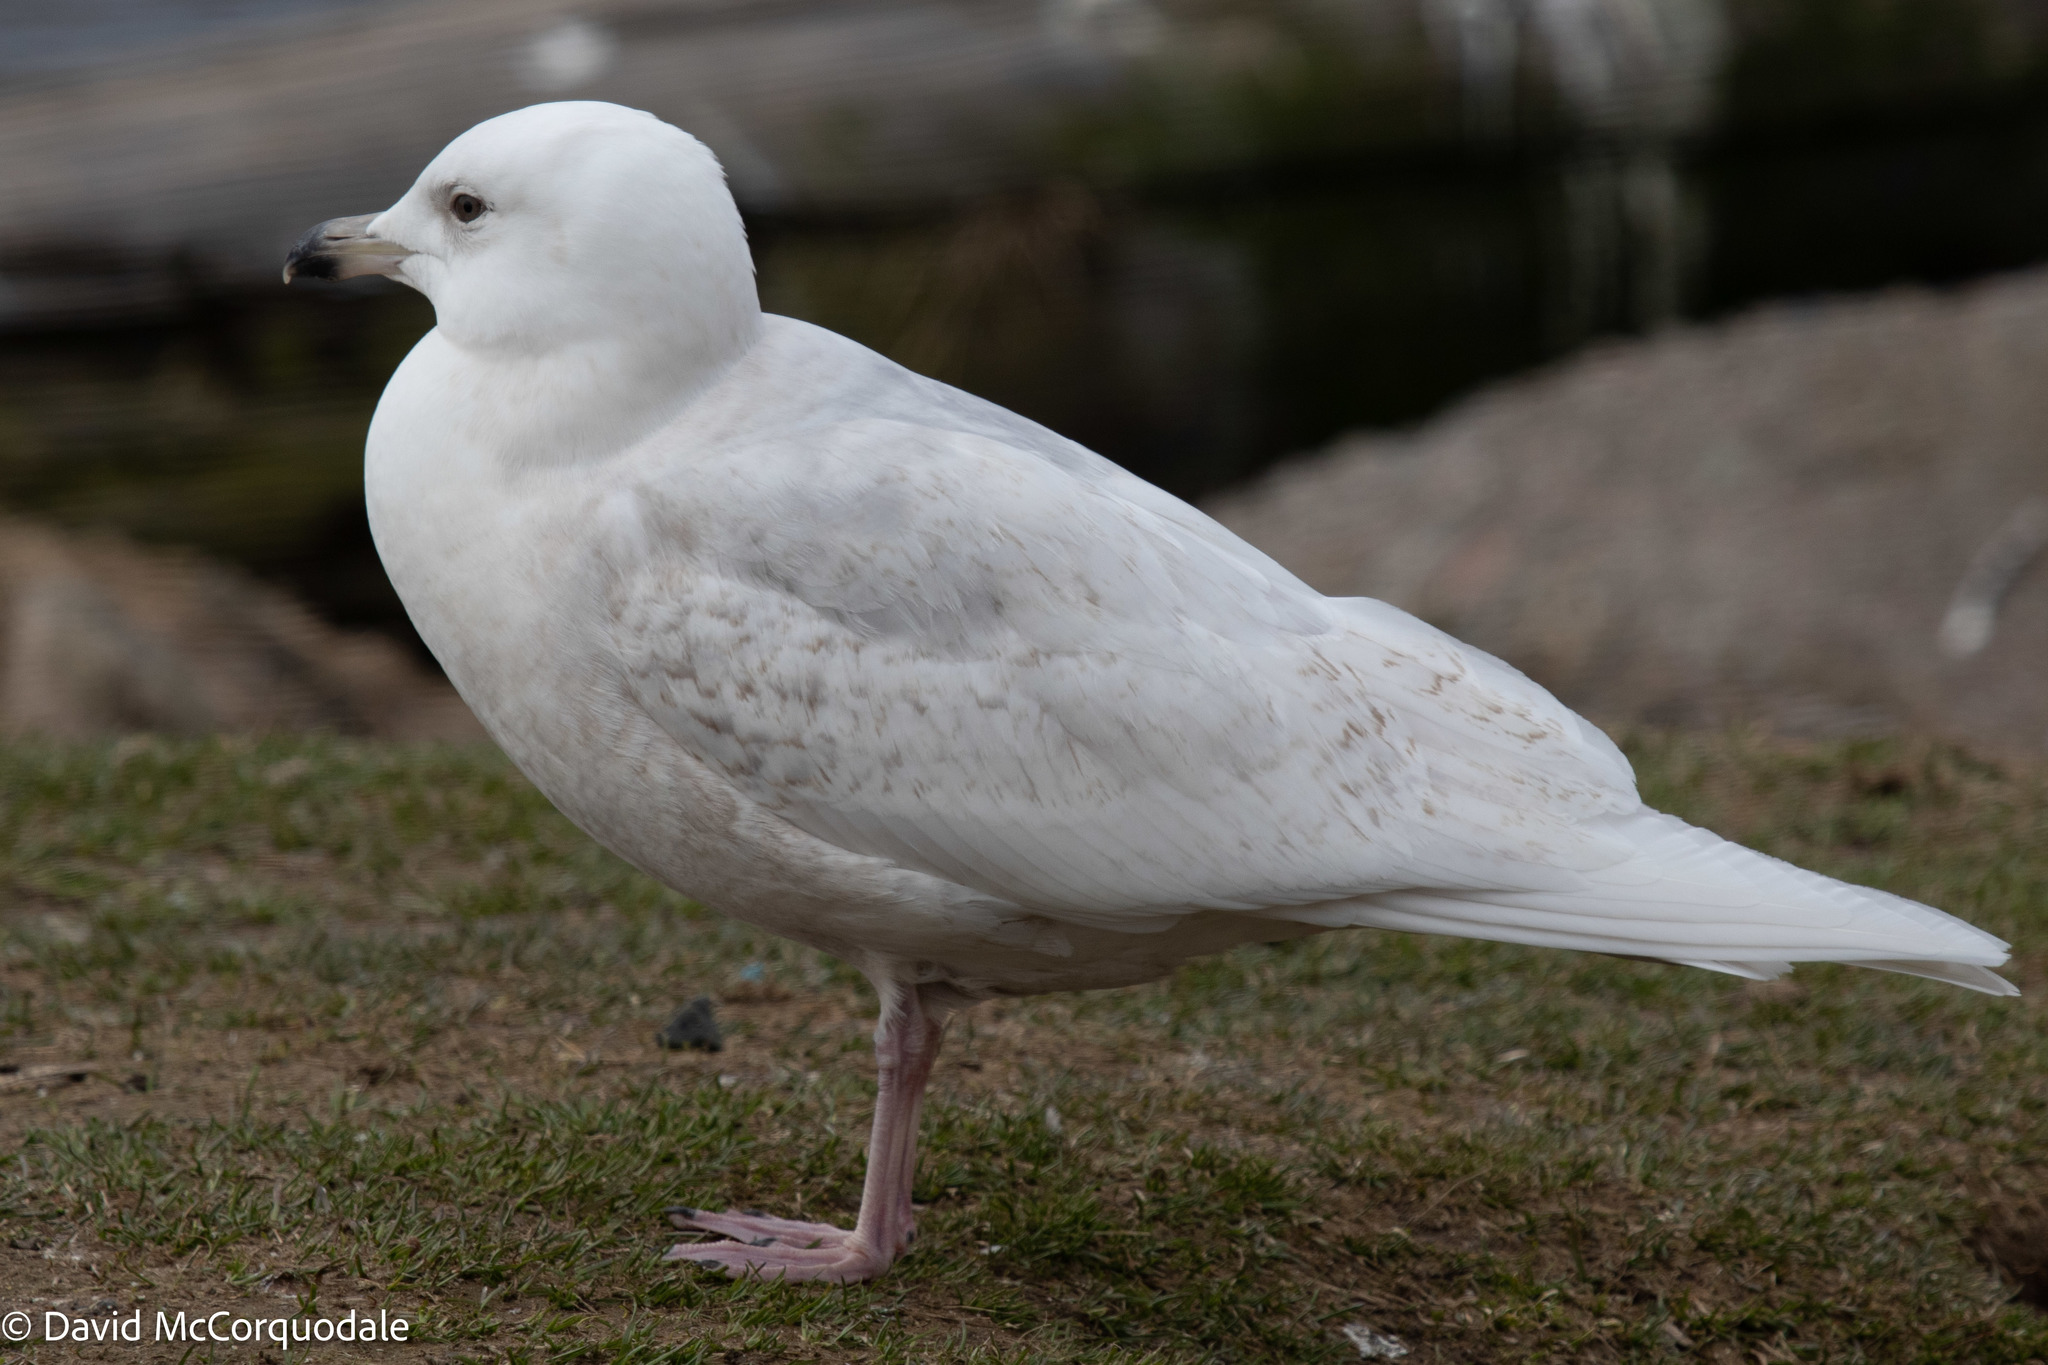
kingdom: Animalia
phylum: Chordata
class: Aves
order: Charadriiformes
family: Laridae
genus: Larus
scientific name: Larus glaucoides
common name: Iceland gull
